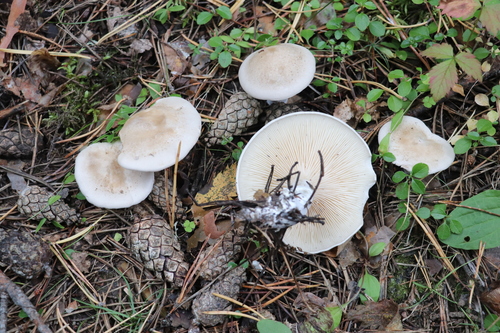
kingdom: Fungi
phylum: Basidiomycota
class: Agaricomycetes
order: Agaricales
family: Entolomataceae
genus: Clitopilus
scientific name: Clitopilus prunulus
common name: The miller
